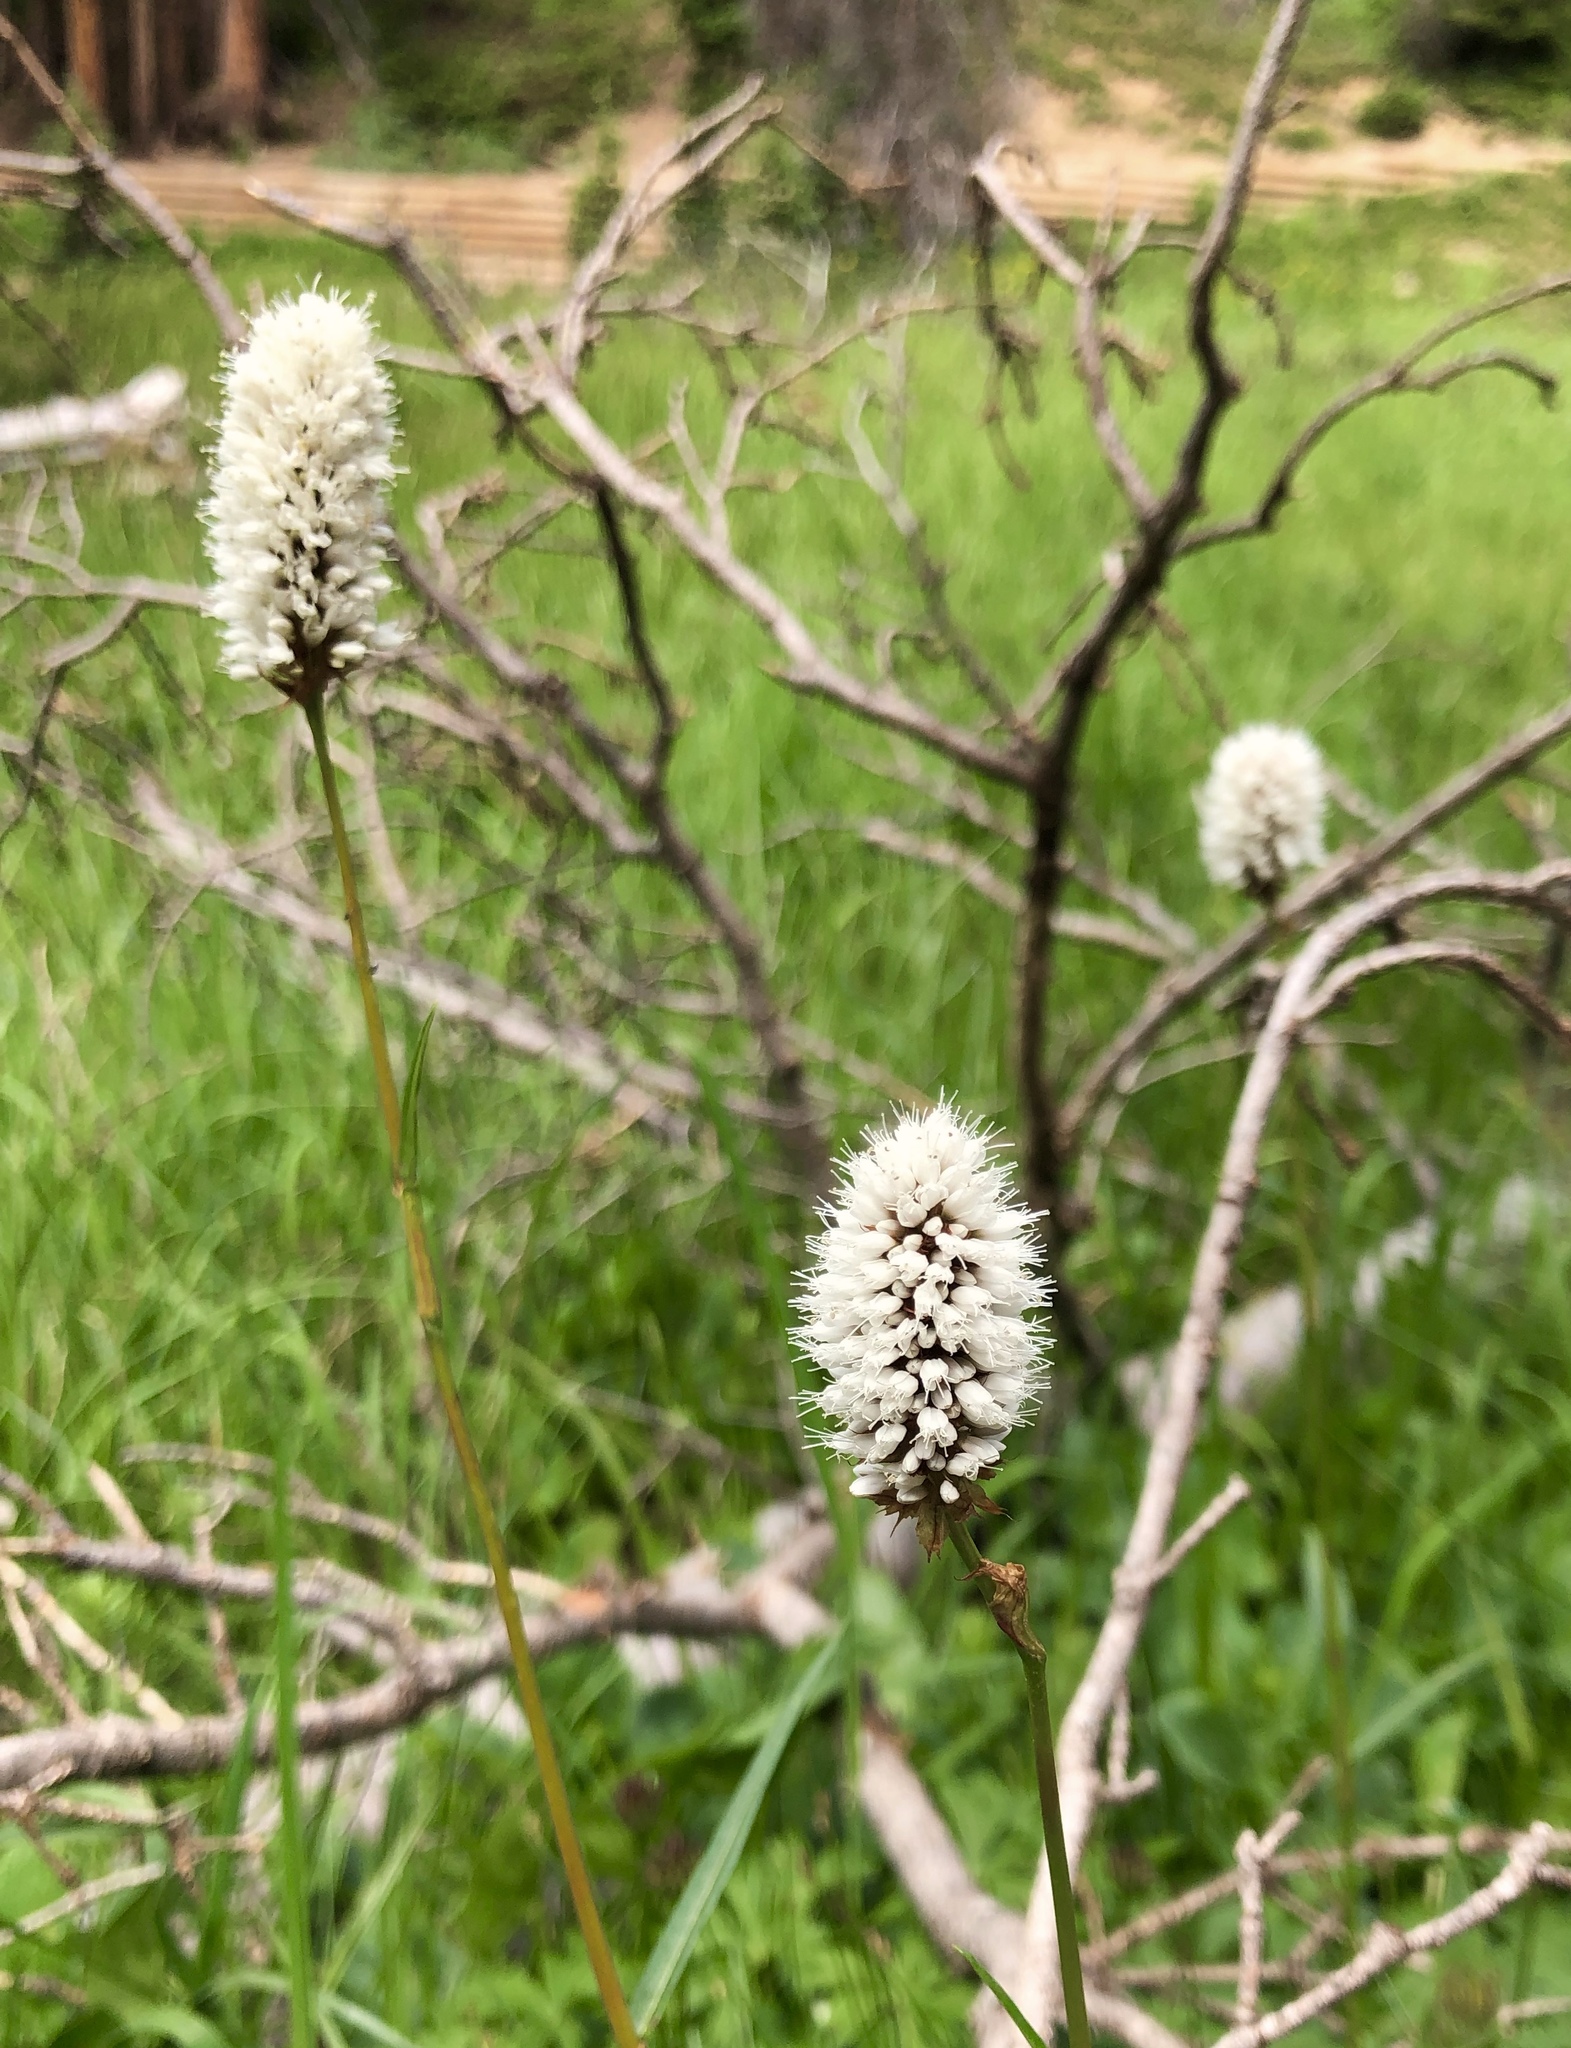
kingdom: Plantae
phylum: Tracheophyta
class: Magnoliopsida
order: Caryophyllales
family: Polygonaceae
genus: Bistorta
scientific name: Bistorta bistortoides
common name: American bistort
